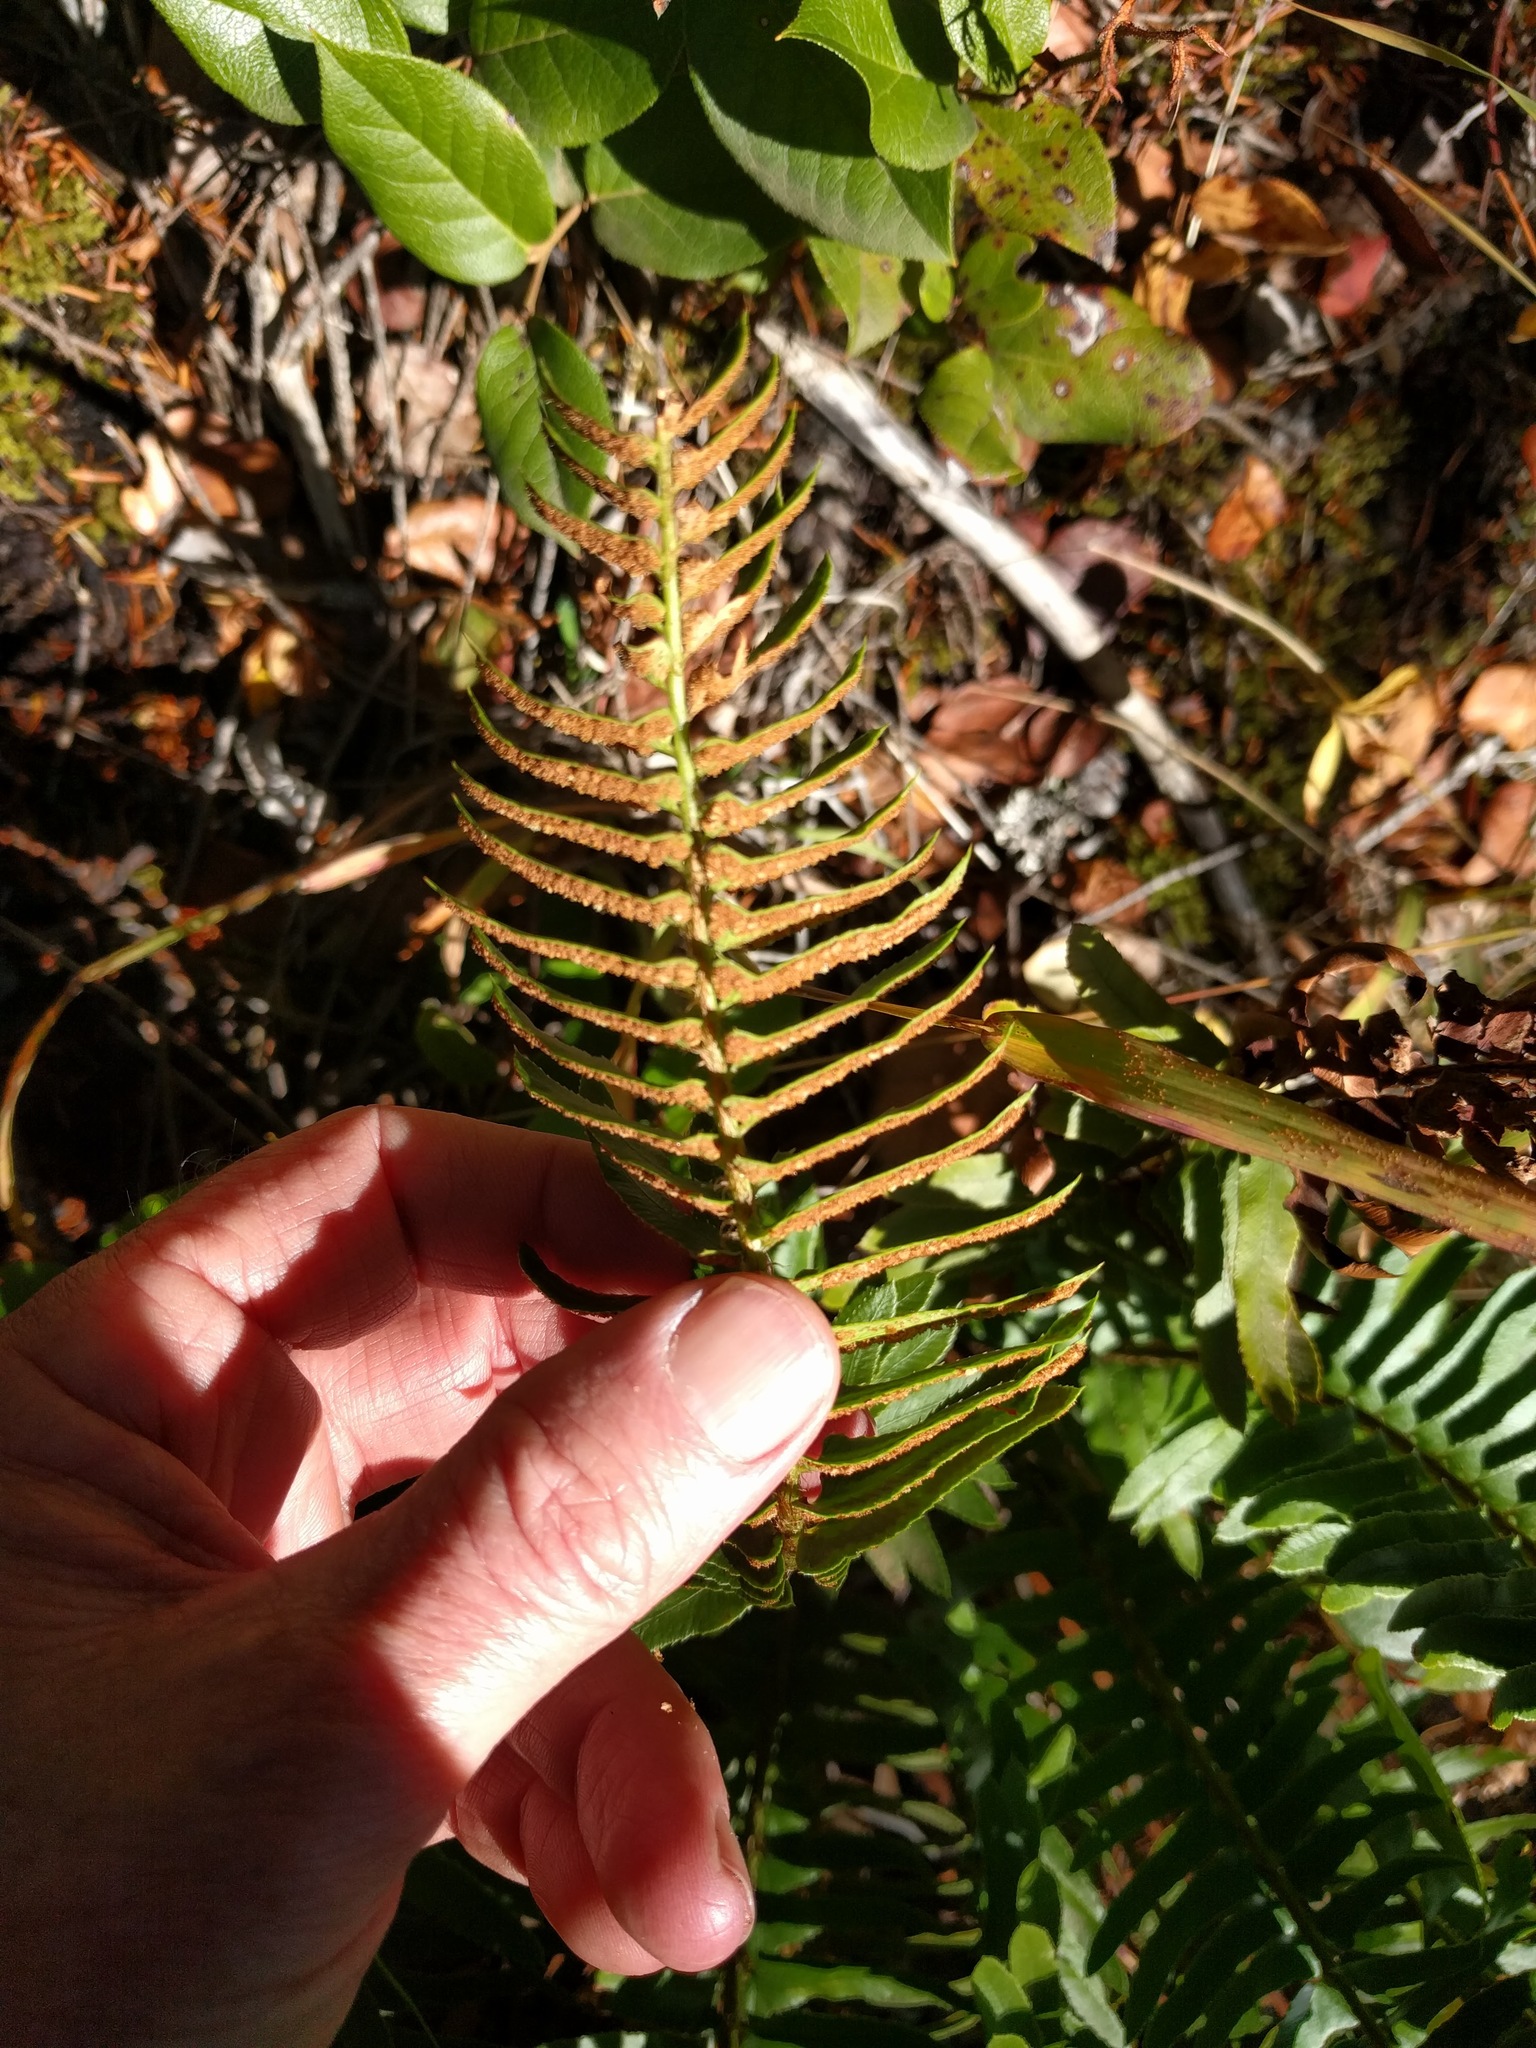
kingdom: Plantae
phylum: Tracheophyta
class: Polypodiopsida
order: Polypodiales
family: Dryopteridaceae
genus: Polystichum
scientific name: Polystichum imbricans
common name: Dwarf western sword fern
